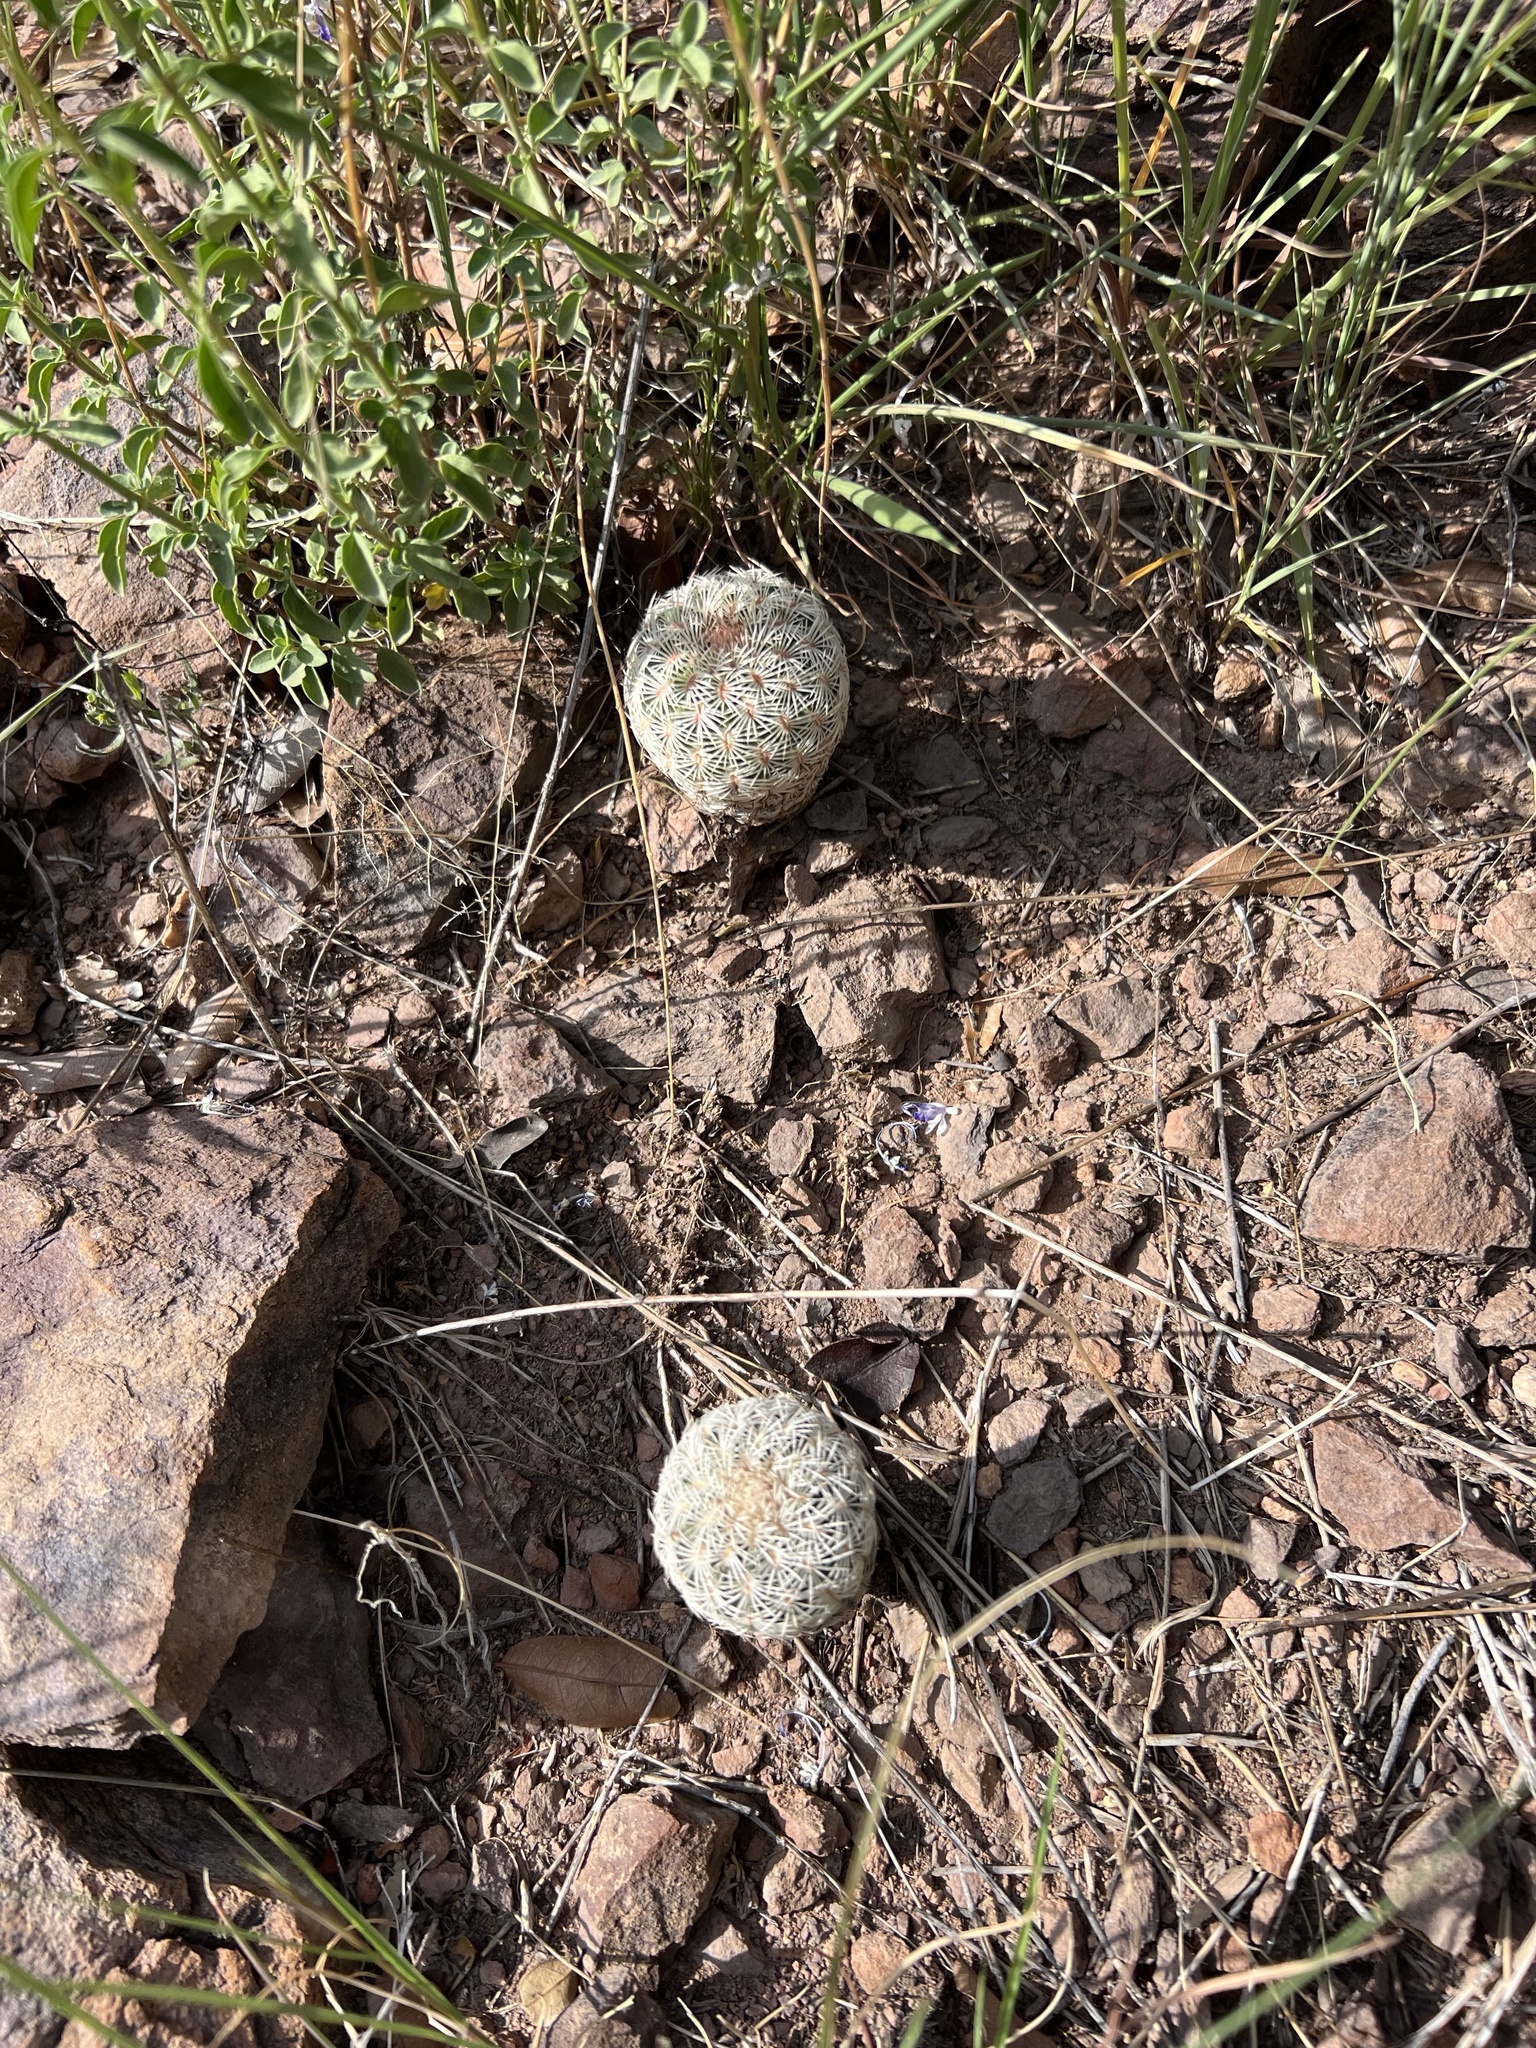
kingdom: Plantae
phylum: Tracheophyta
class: Magnoliopsida
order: Caryophyllales
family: Cactaceae
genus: Echinocereus
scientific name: Echinocereus rigidissimus
